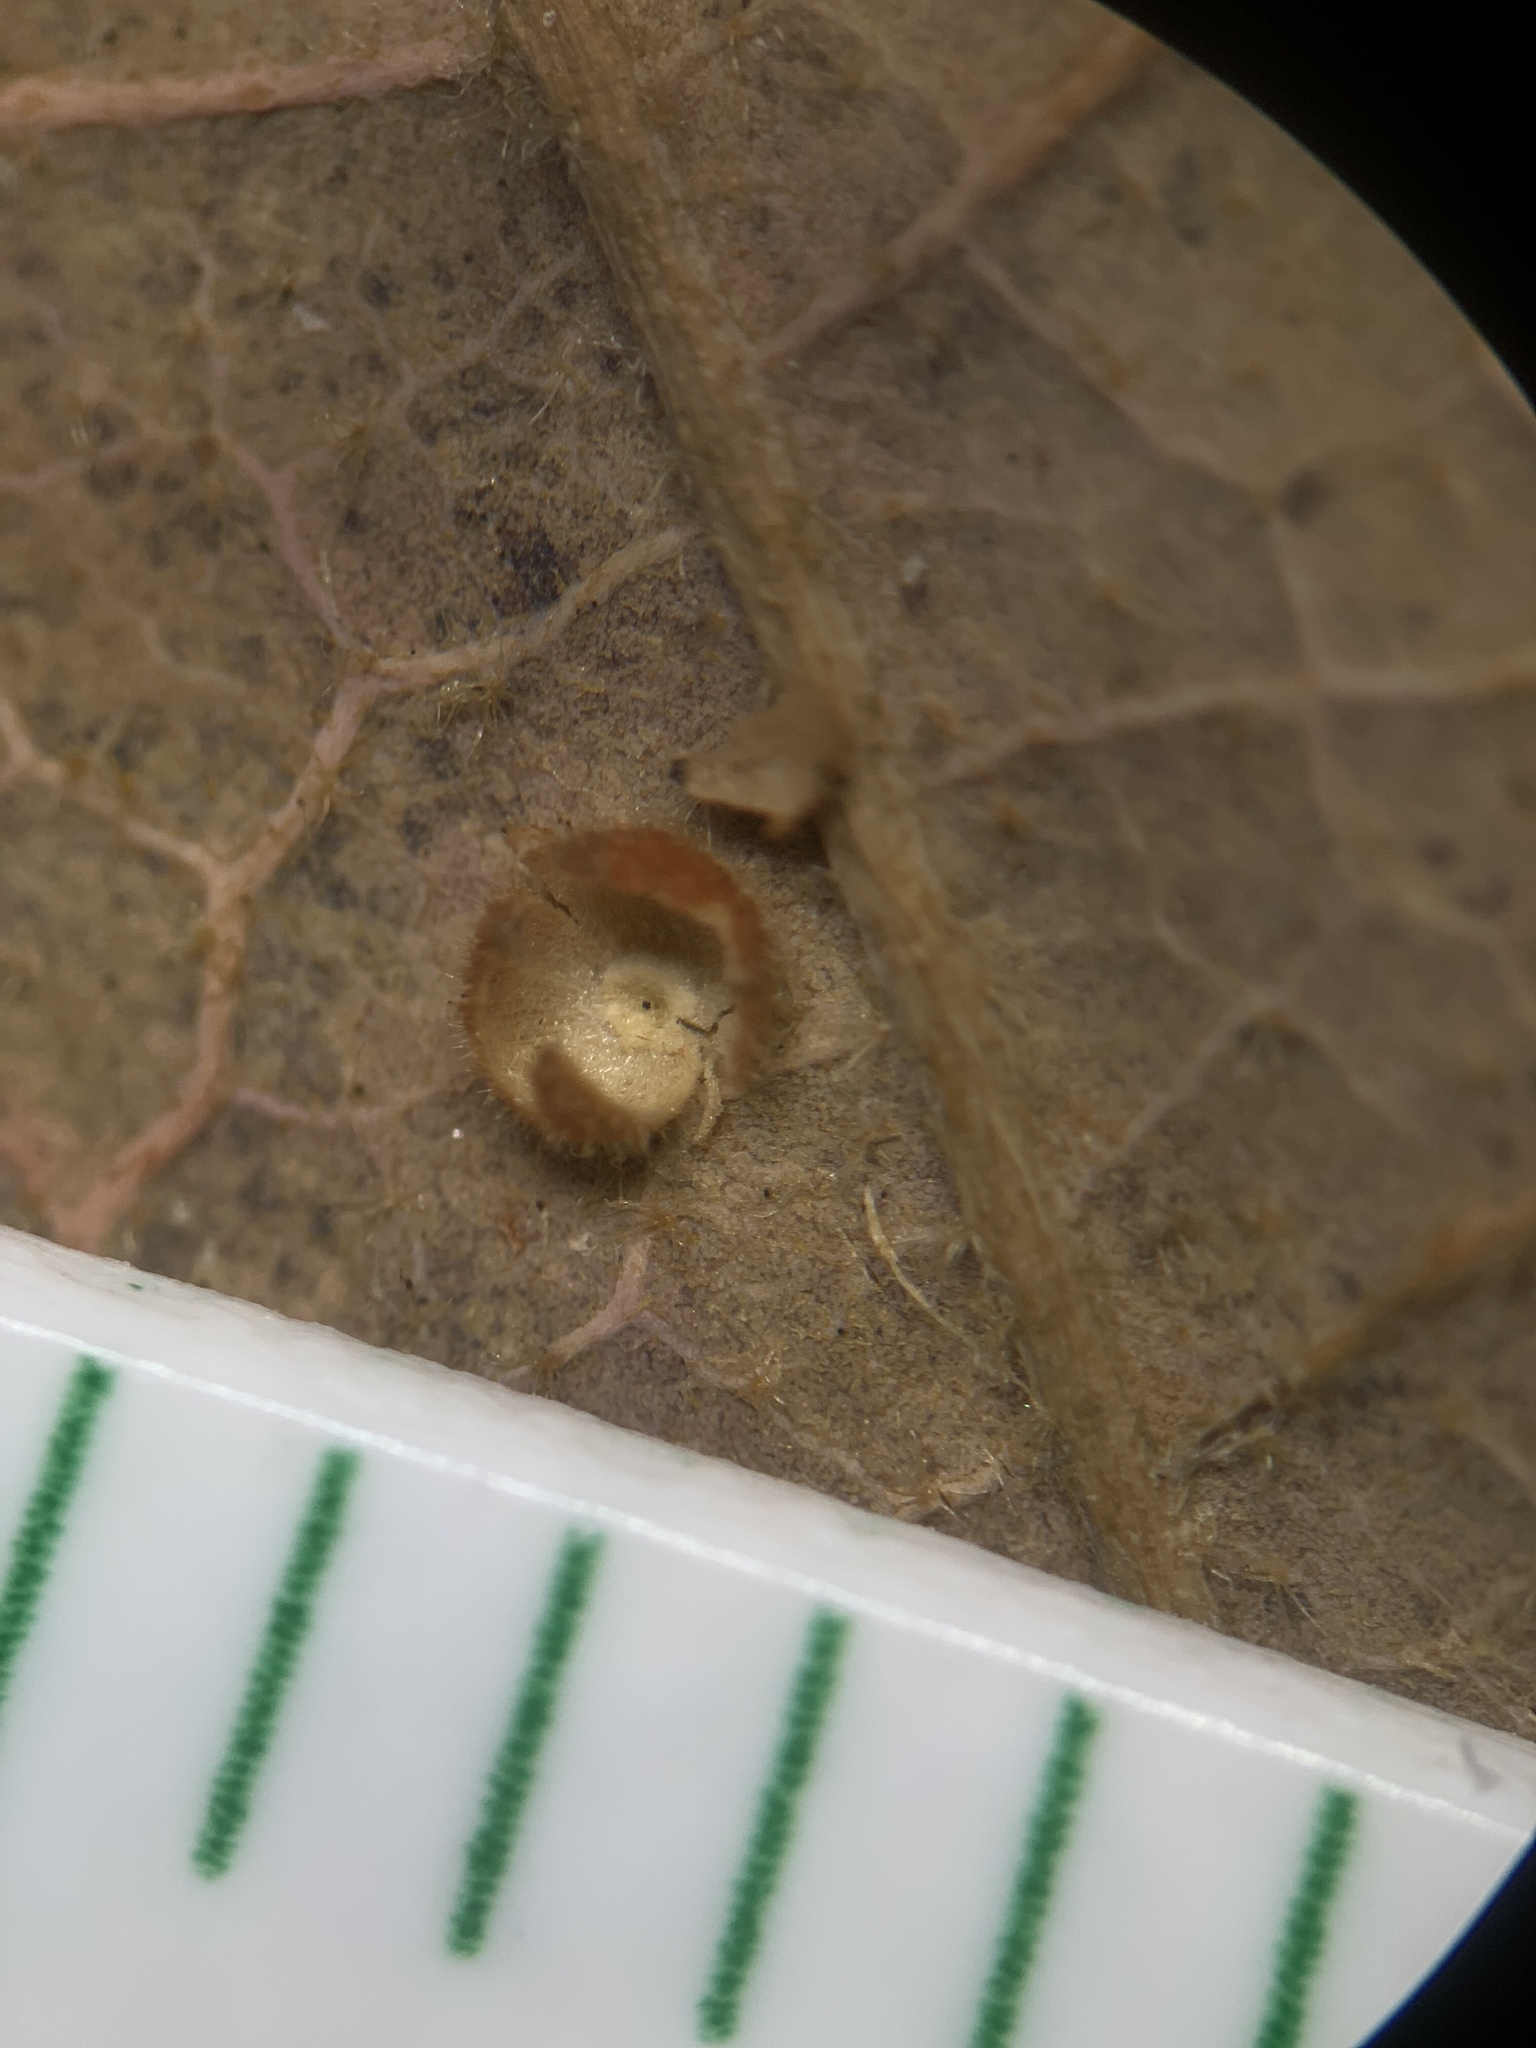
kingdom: Animalia
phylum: Arthropoda
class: Insecta
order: Hymenoptera
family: Cynipidae
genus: Neuroterus
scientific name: Neuroterus saltarius
